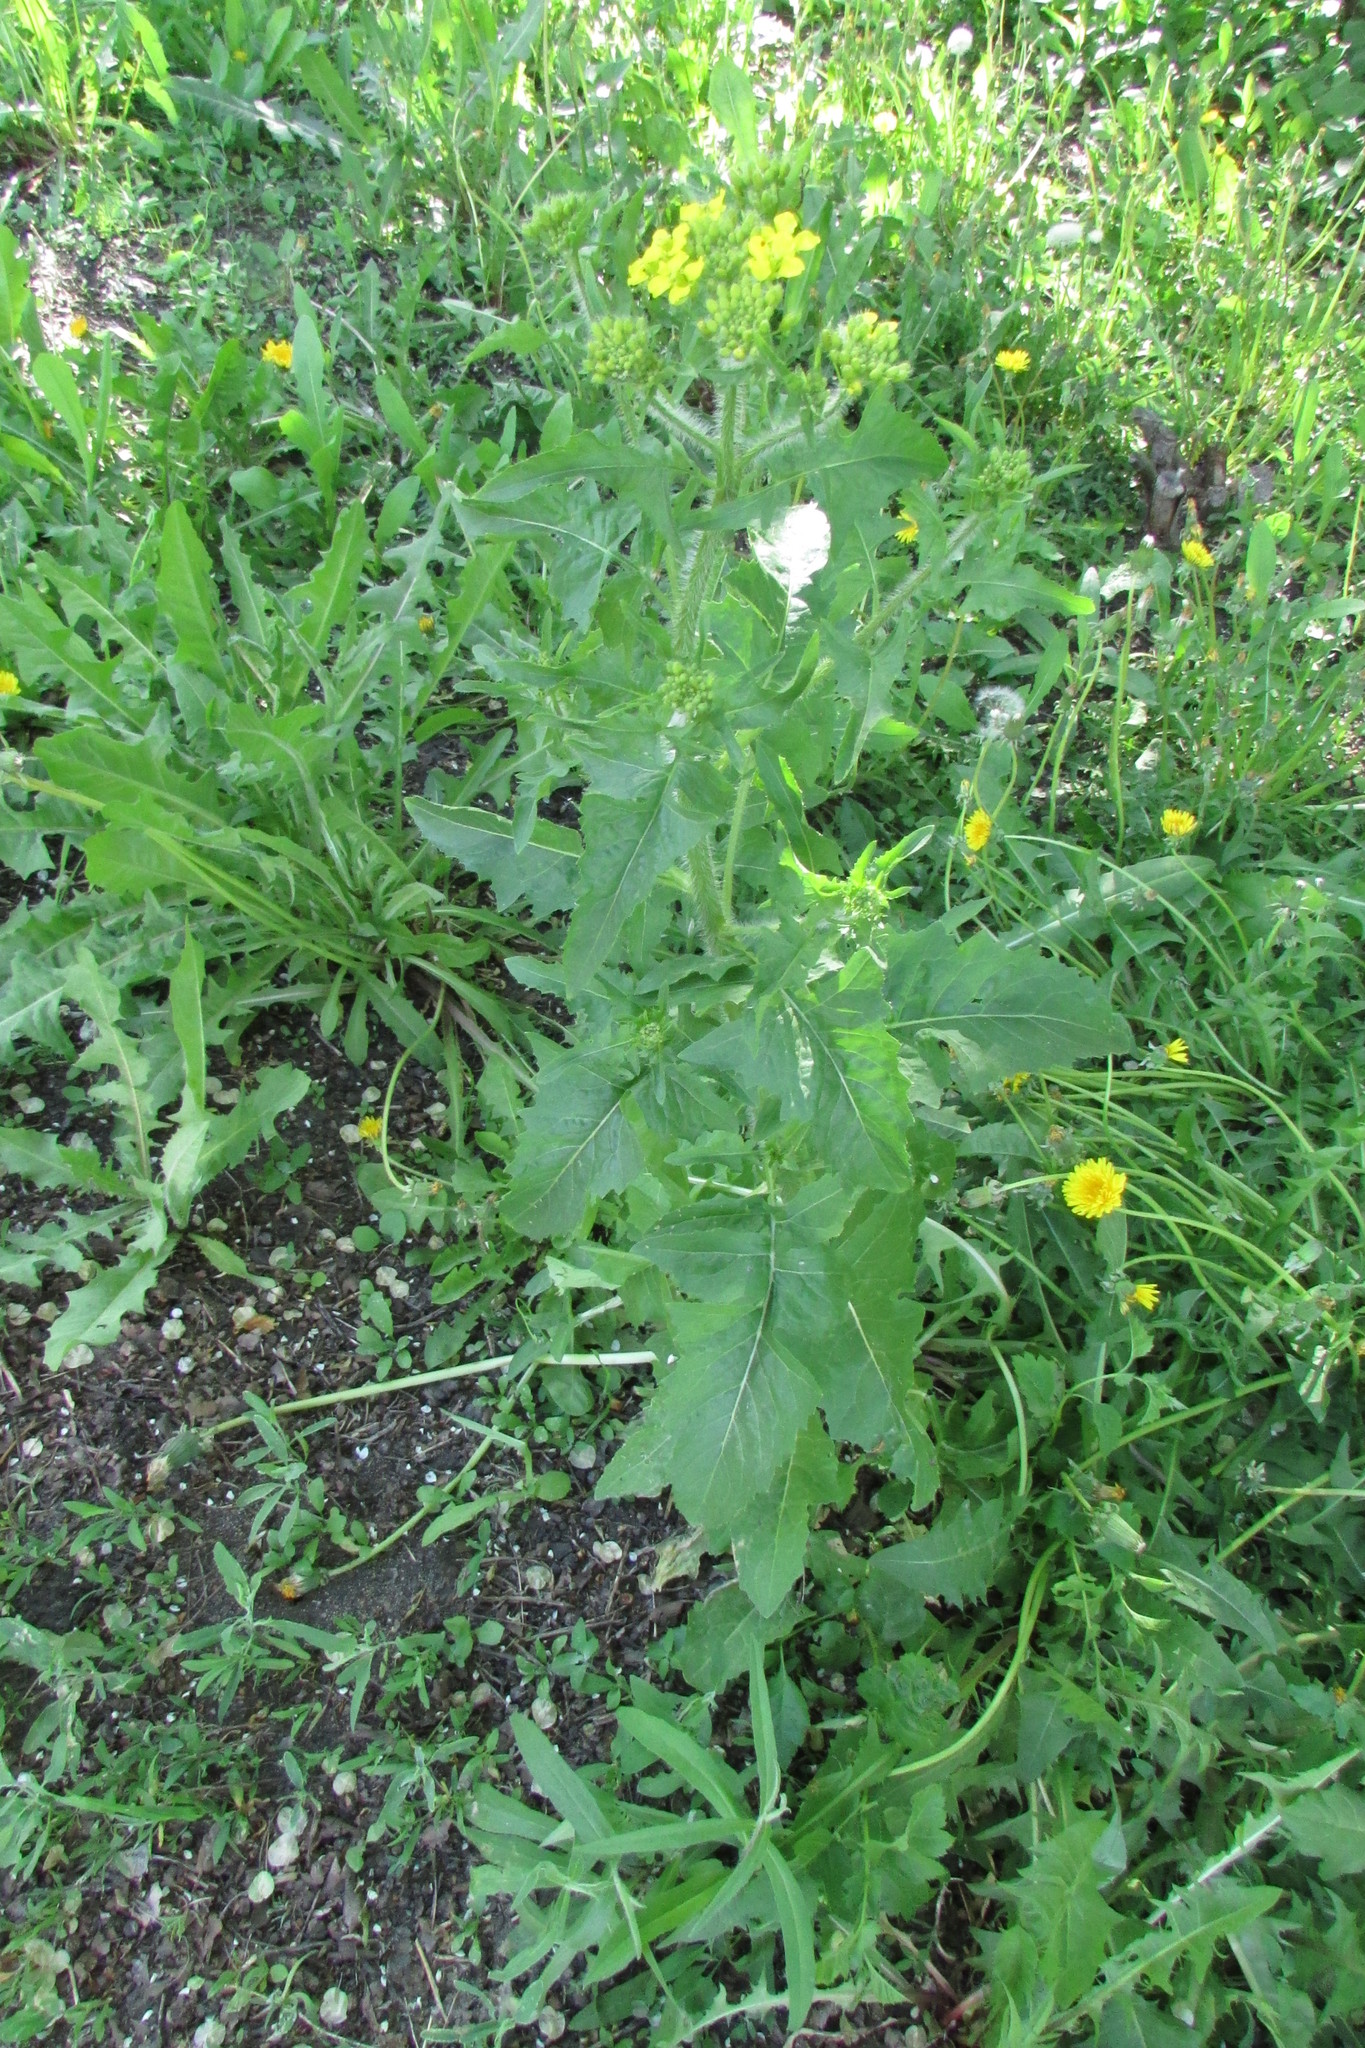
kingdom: Plantae
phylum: Tracheophyta
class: Magnoliopsida
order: Brassicales
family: Brassicaceae
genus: Bunias
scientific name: Bunias orientalis
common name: Warty-cabbage
